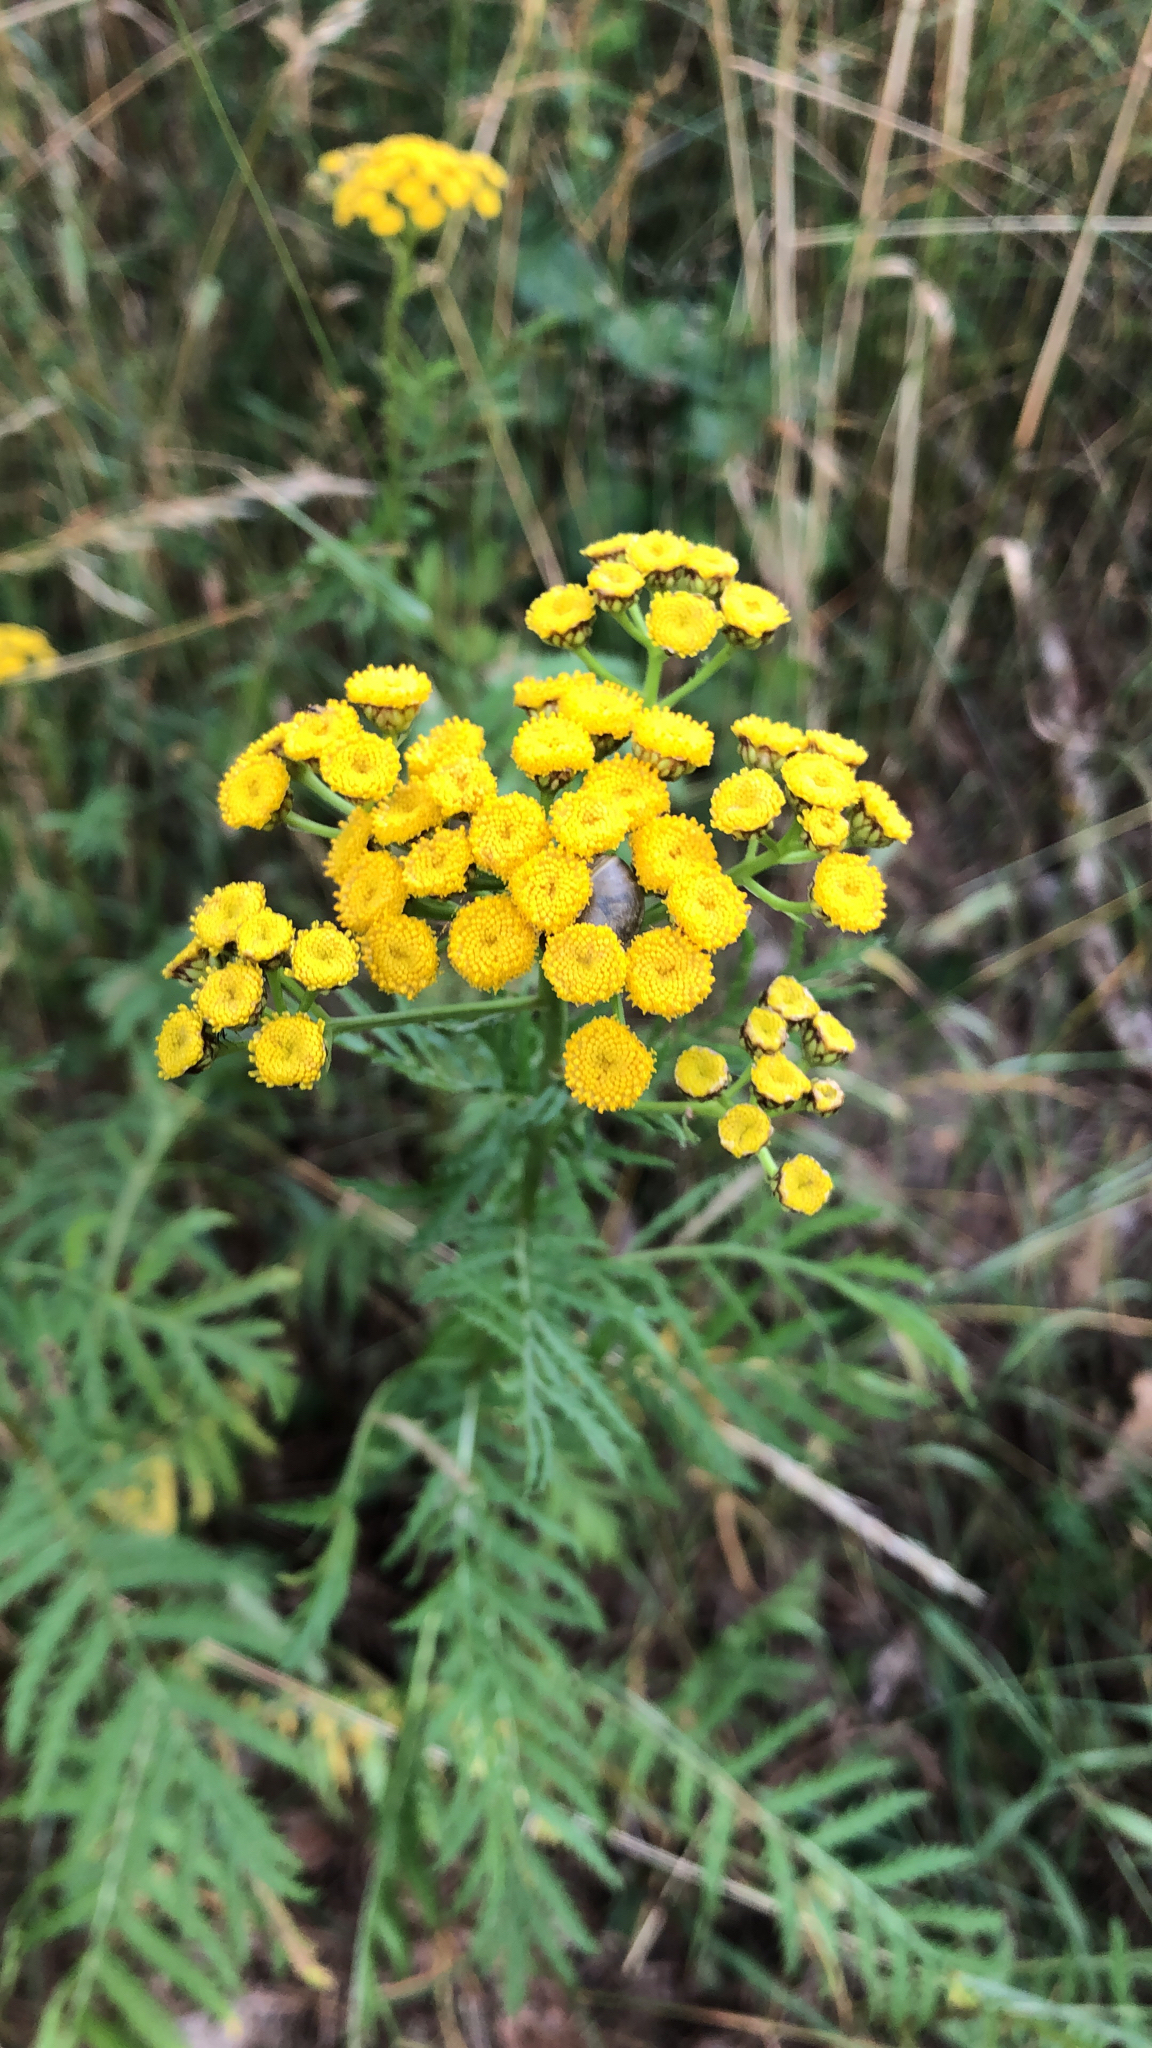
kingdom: Plantae
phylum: Tracheophyta
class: Magnoliopsida
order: Asterales
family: Asteraceae
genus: Tanacetum
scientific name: Tanacetum vulgare
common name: Common tansy
